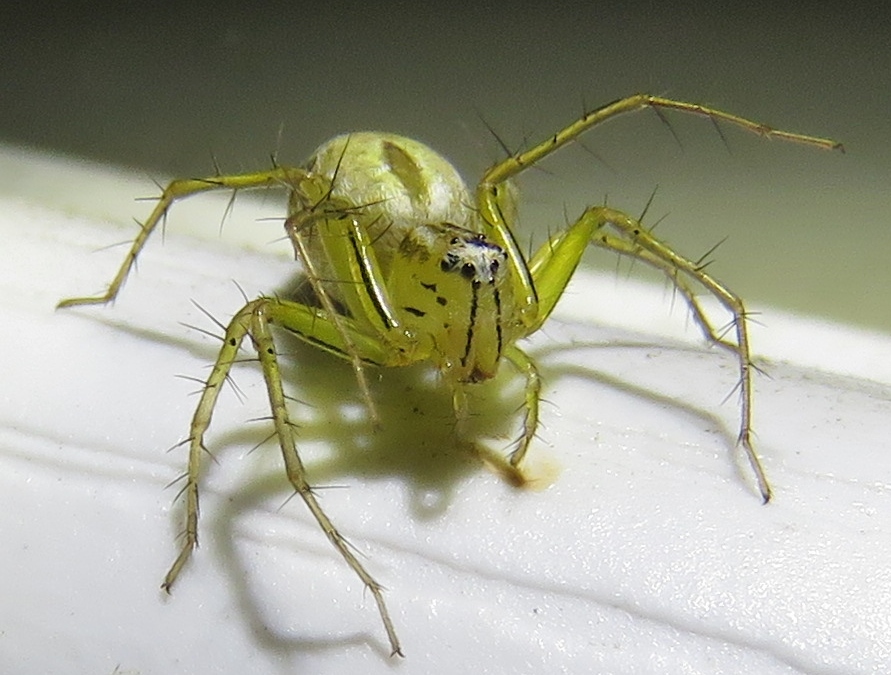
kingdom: Animalia
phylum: Arthropoda
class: Arachnida
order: Araneae
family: Oxyopidae
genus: Oxyopes
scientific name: Oxyopes salticus
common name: Lynx spiders
